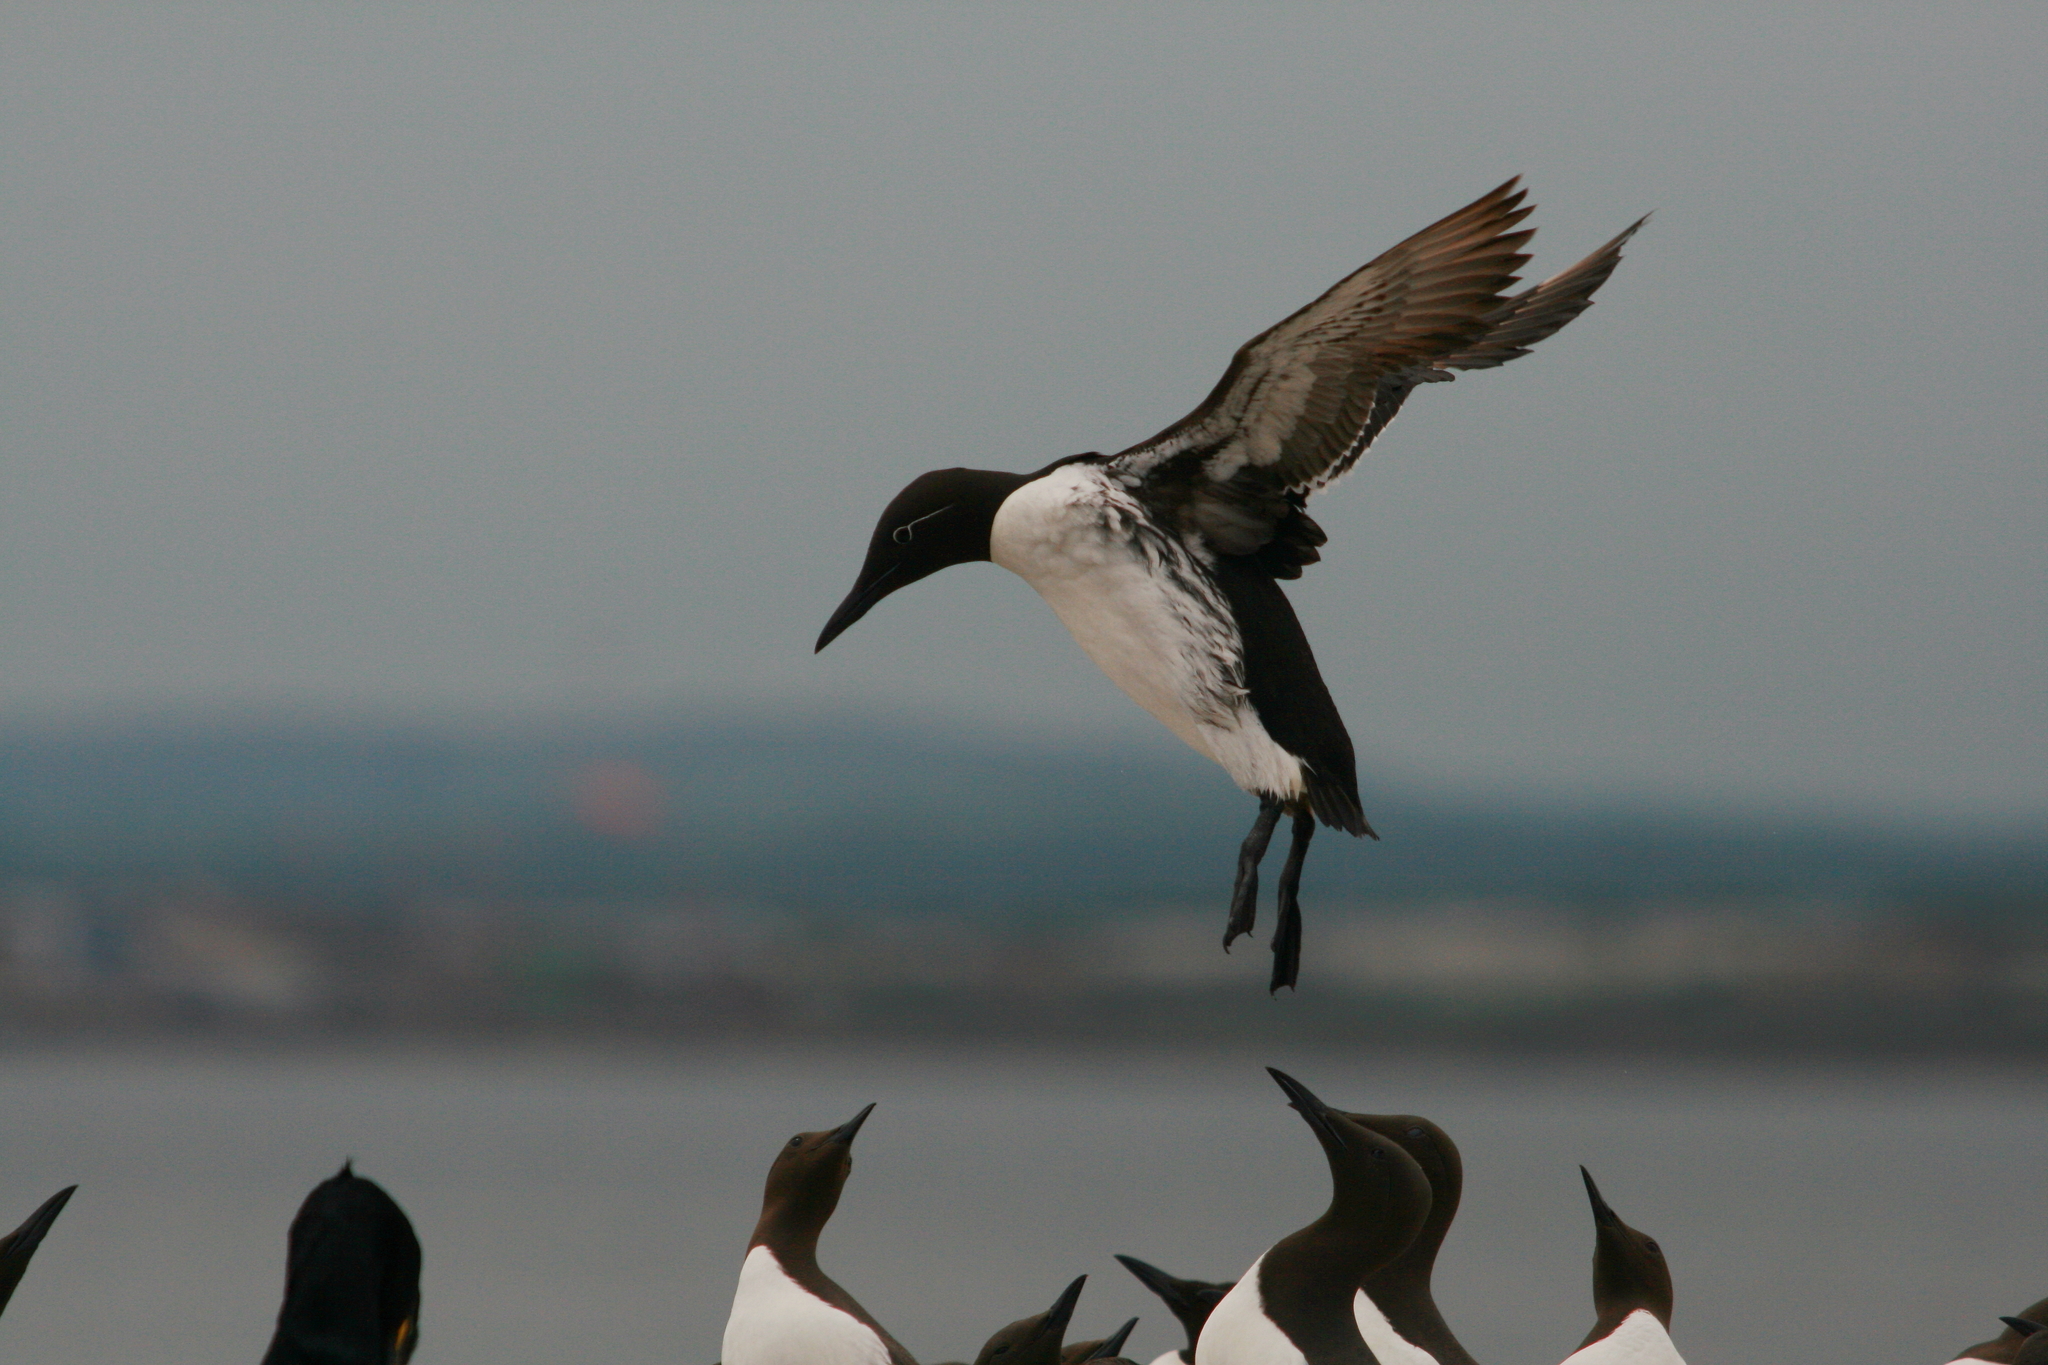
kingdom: Animalia
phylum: Chordata
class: Aves
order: Charadriiformes
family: Alcidae
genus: Uria
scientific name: Uria aalge
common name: Common murre
